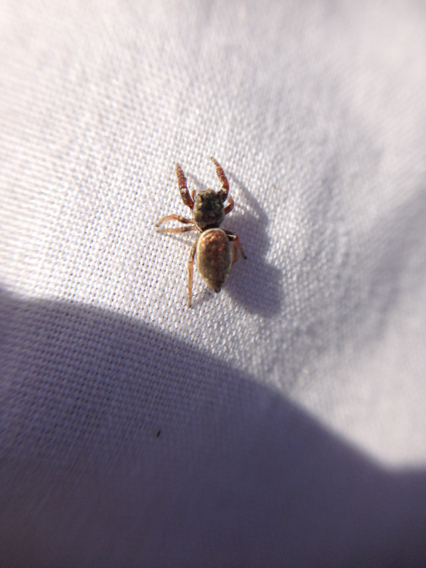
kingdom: Animalia
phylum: Arthropoda
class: Arachnida
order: Araneae
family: Salticidae
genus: Sassacus
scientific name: Sassacus vitis
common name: Jumping spiders
